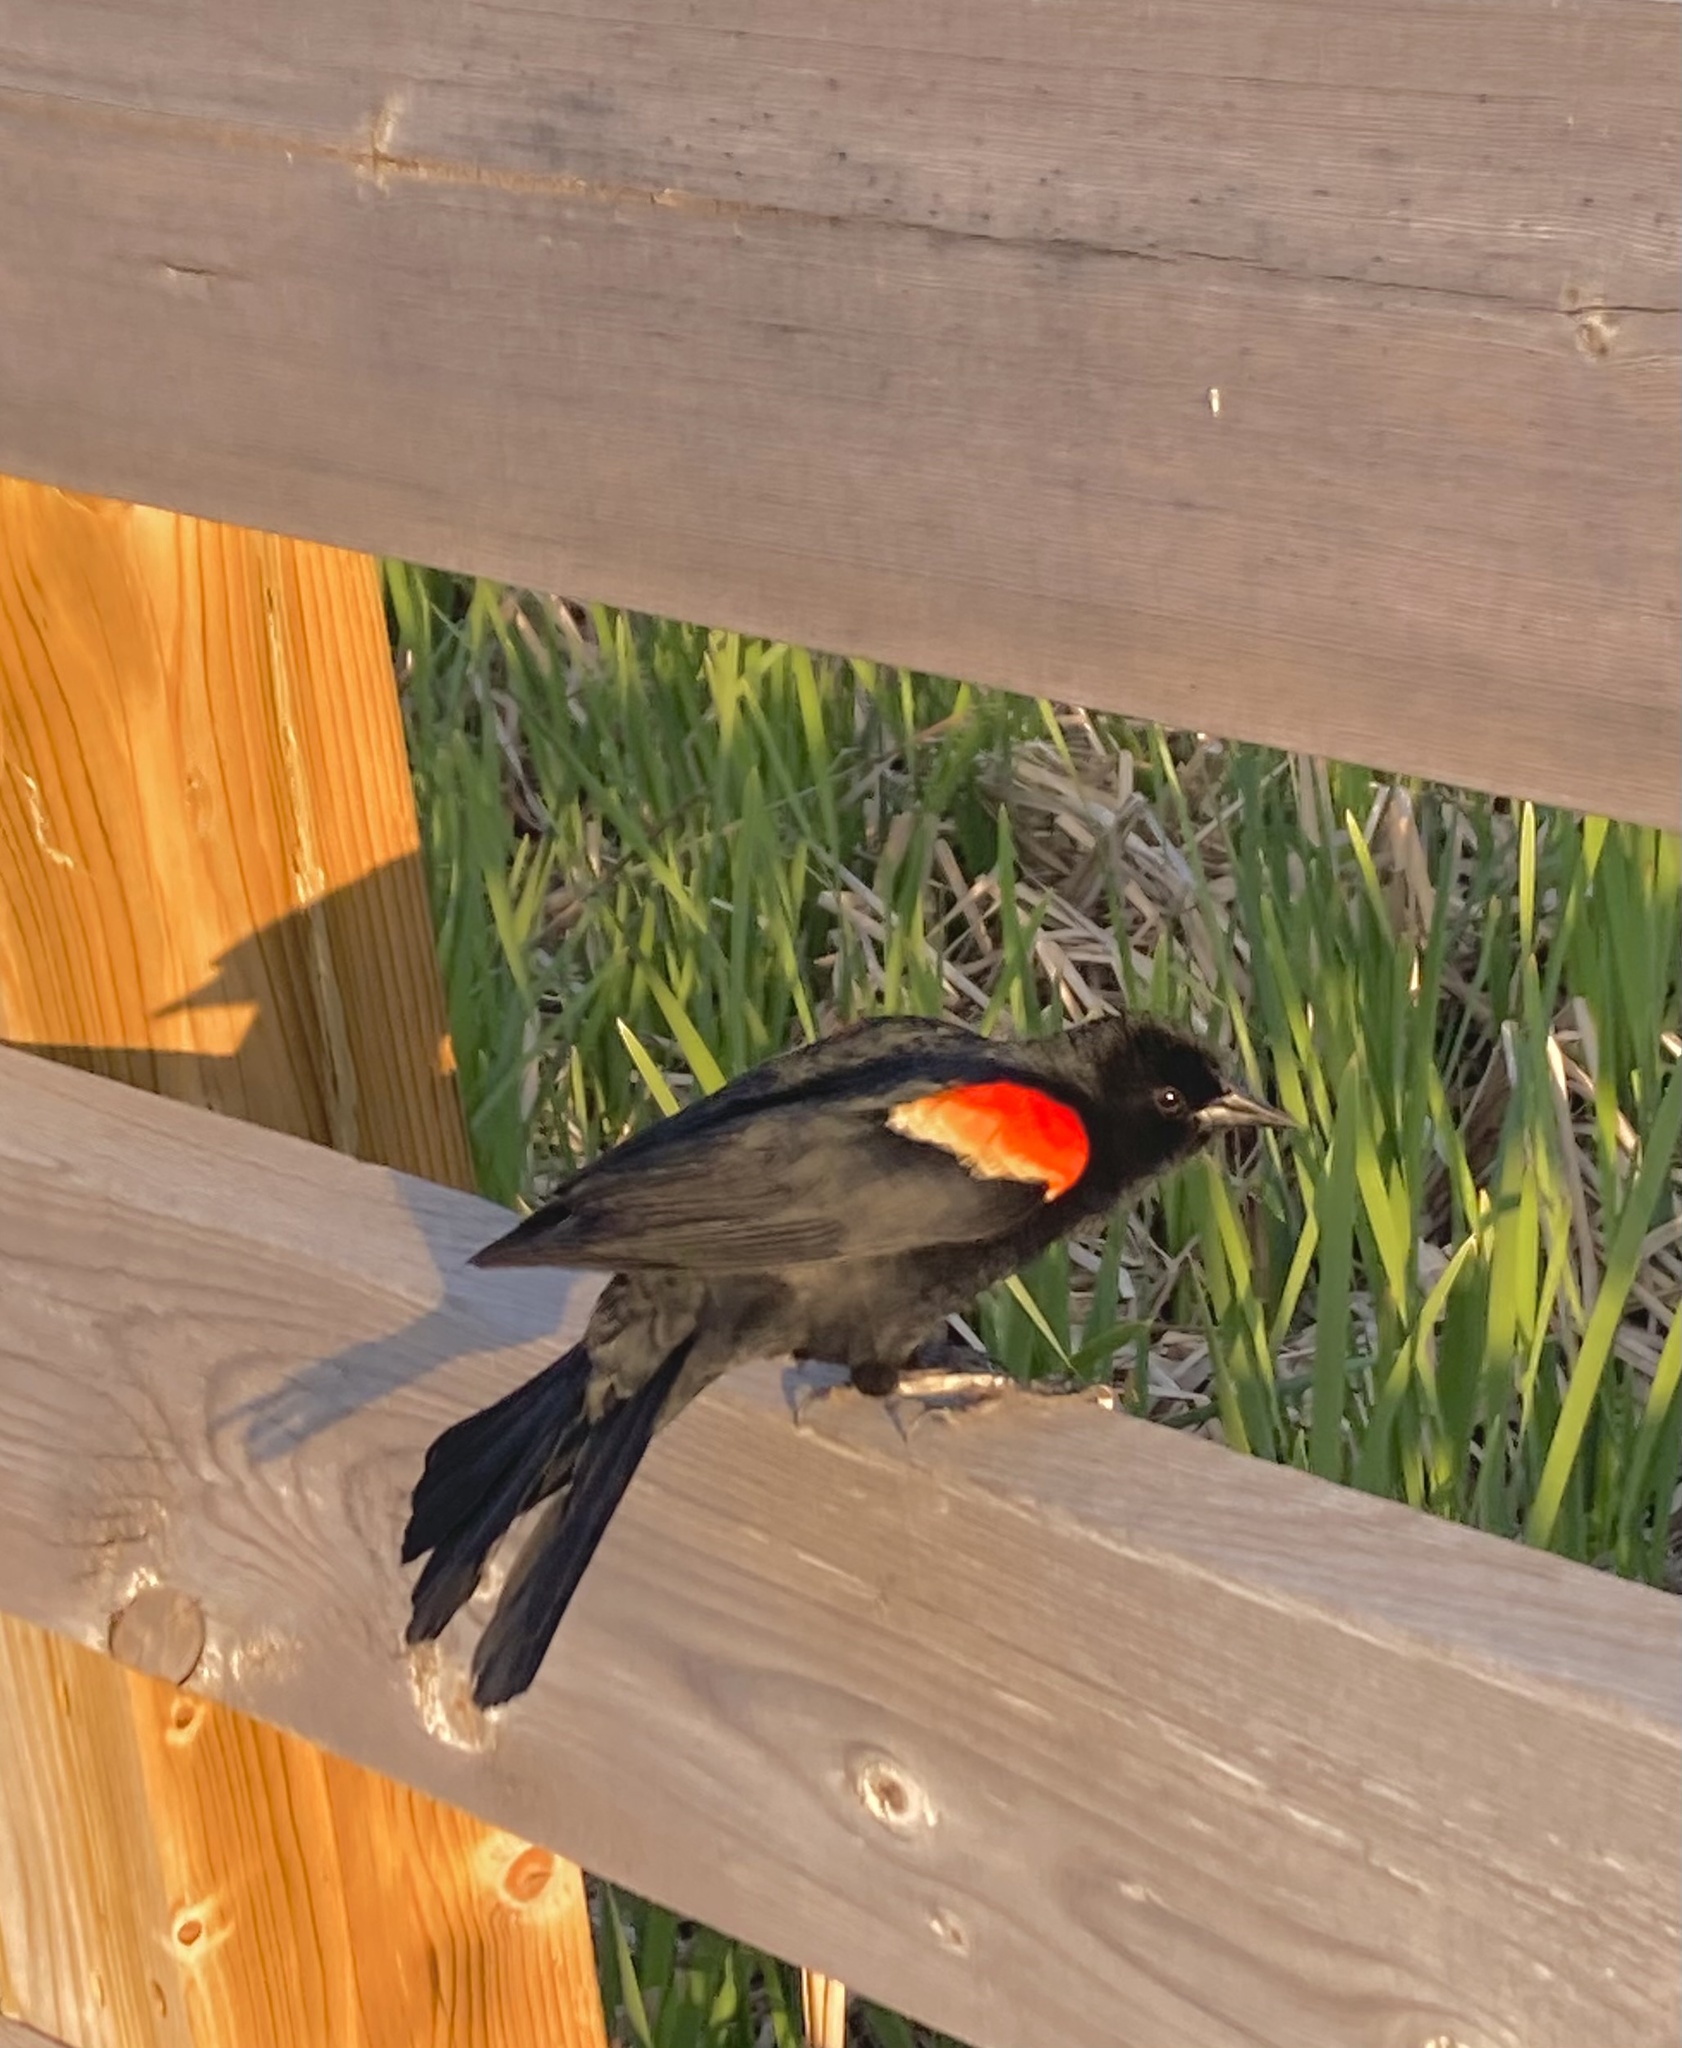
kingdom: Animalia
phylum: Chordata
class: Aves
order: Passeriformes
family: Icteridae
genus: Agelaius
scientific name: Agelaius phoeniceus
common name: Red-winged blackbird
